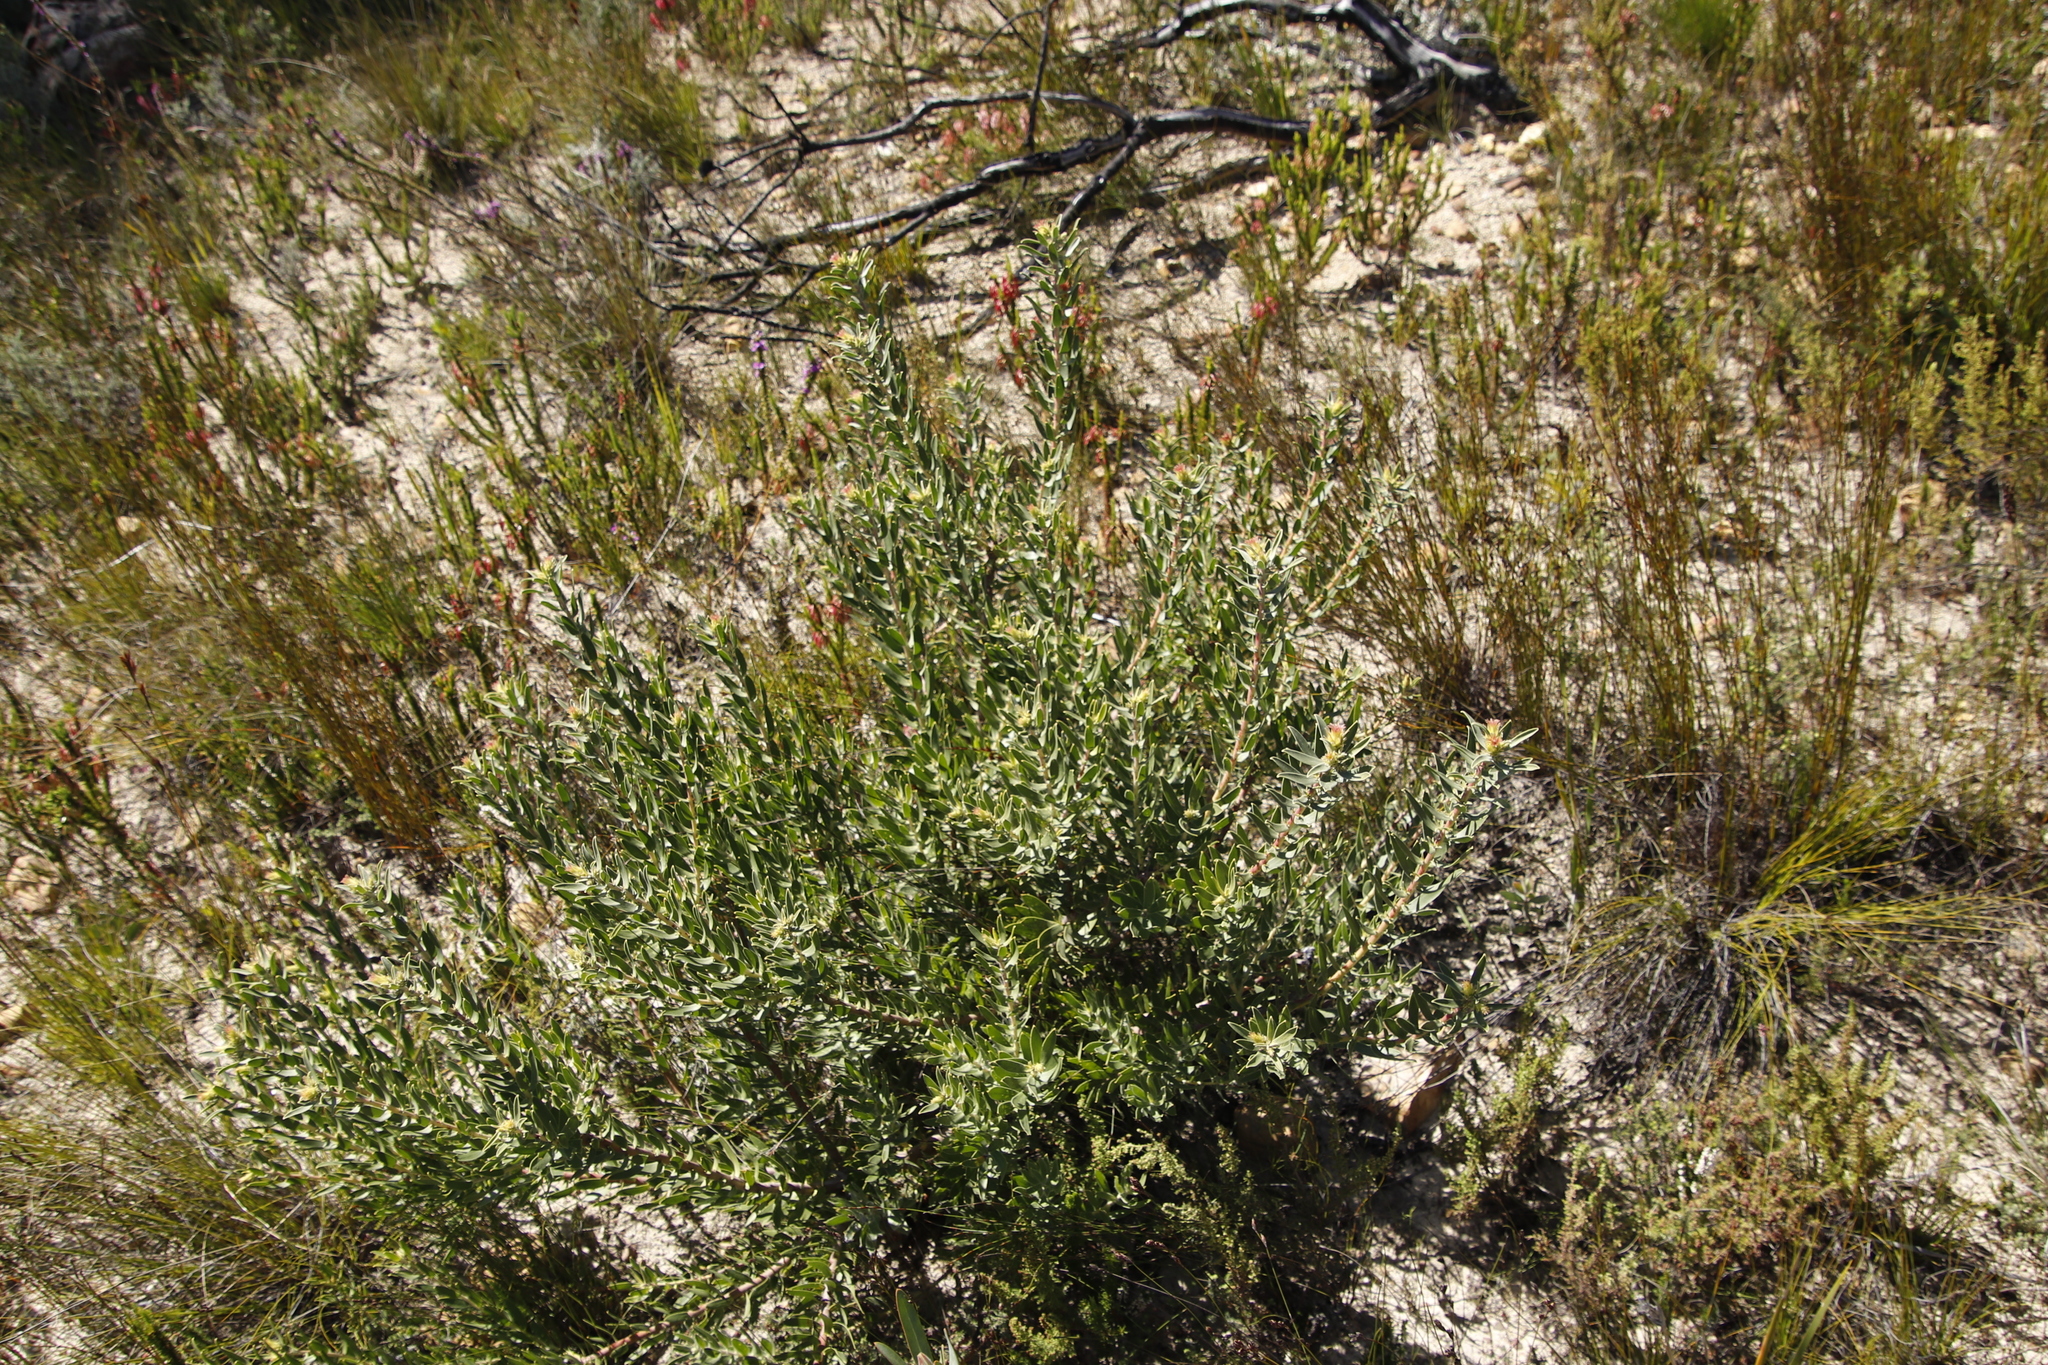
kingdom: Plantae
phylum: Tracheophyta
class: Magnoliopsida
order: Proteales
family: Proteaceae
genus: Leucospermum
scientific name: Leucospermum tottum
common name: Ribbon pincushion
